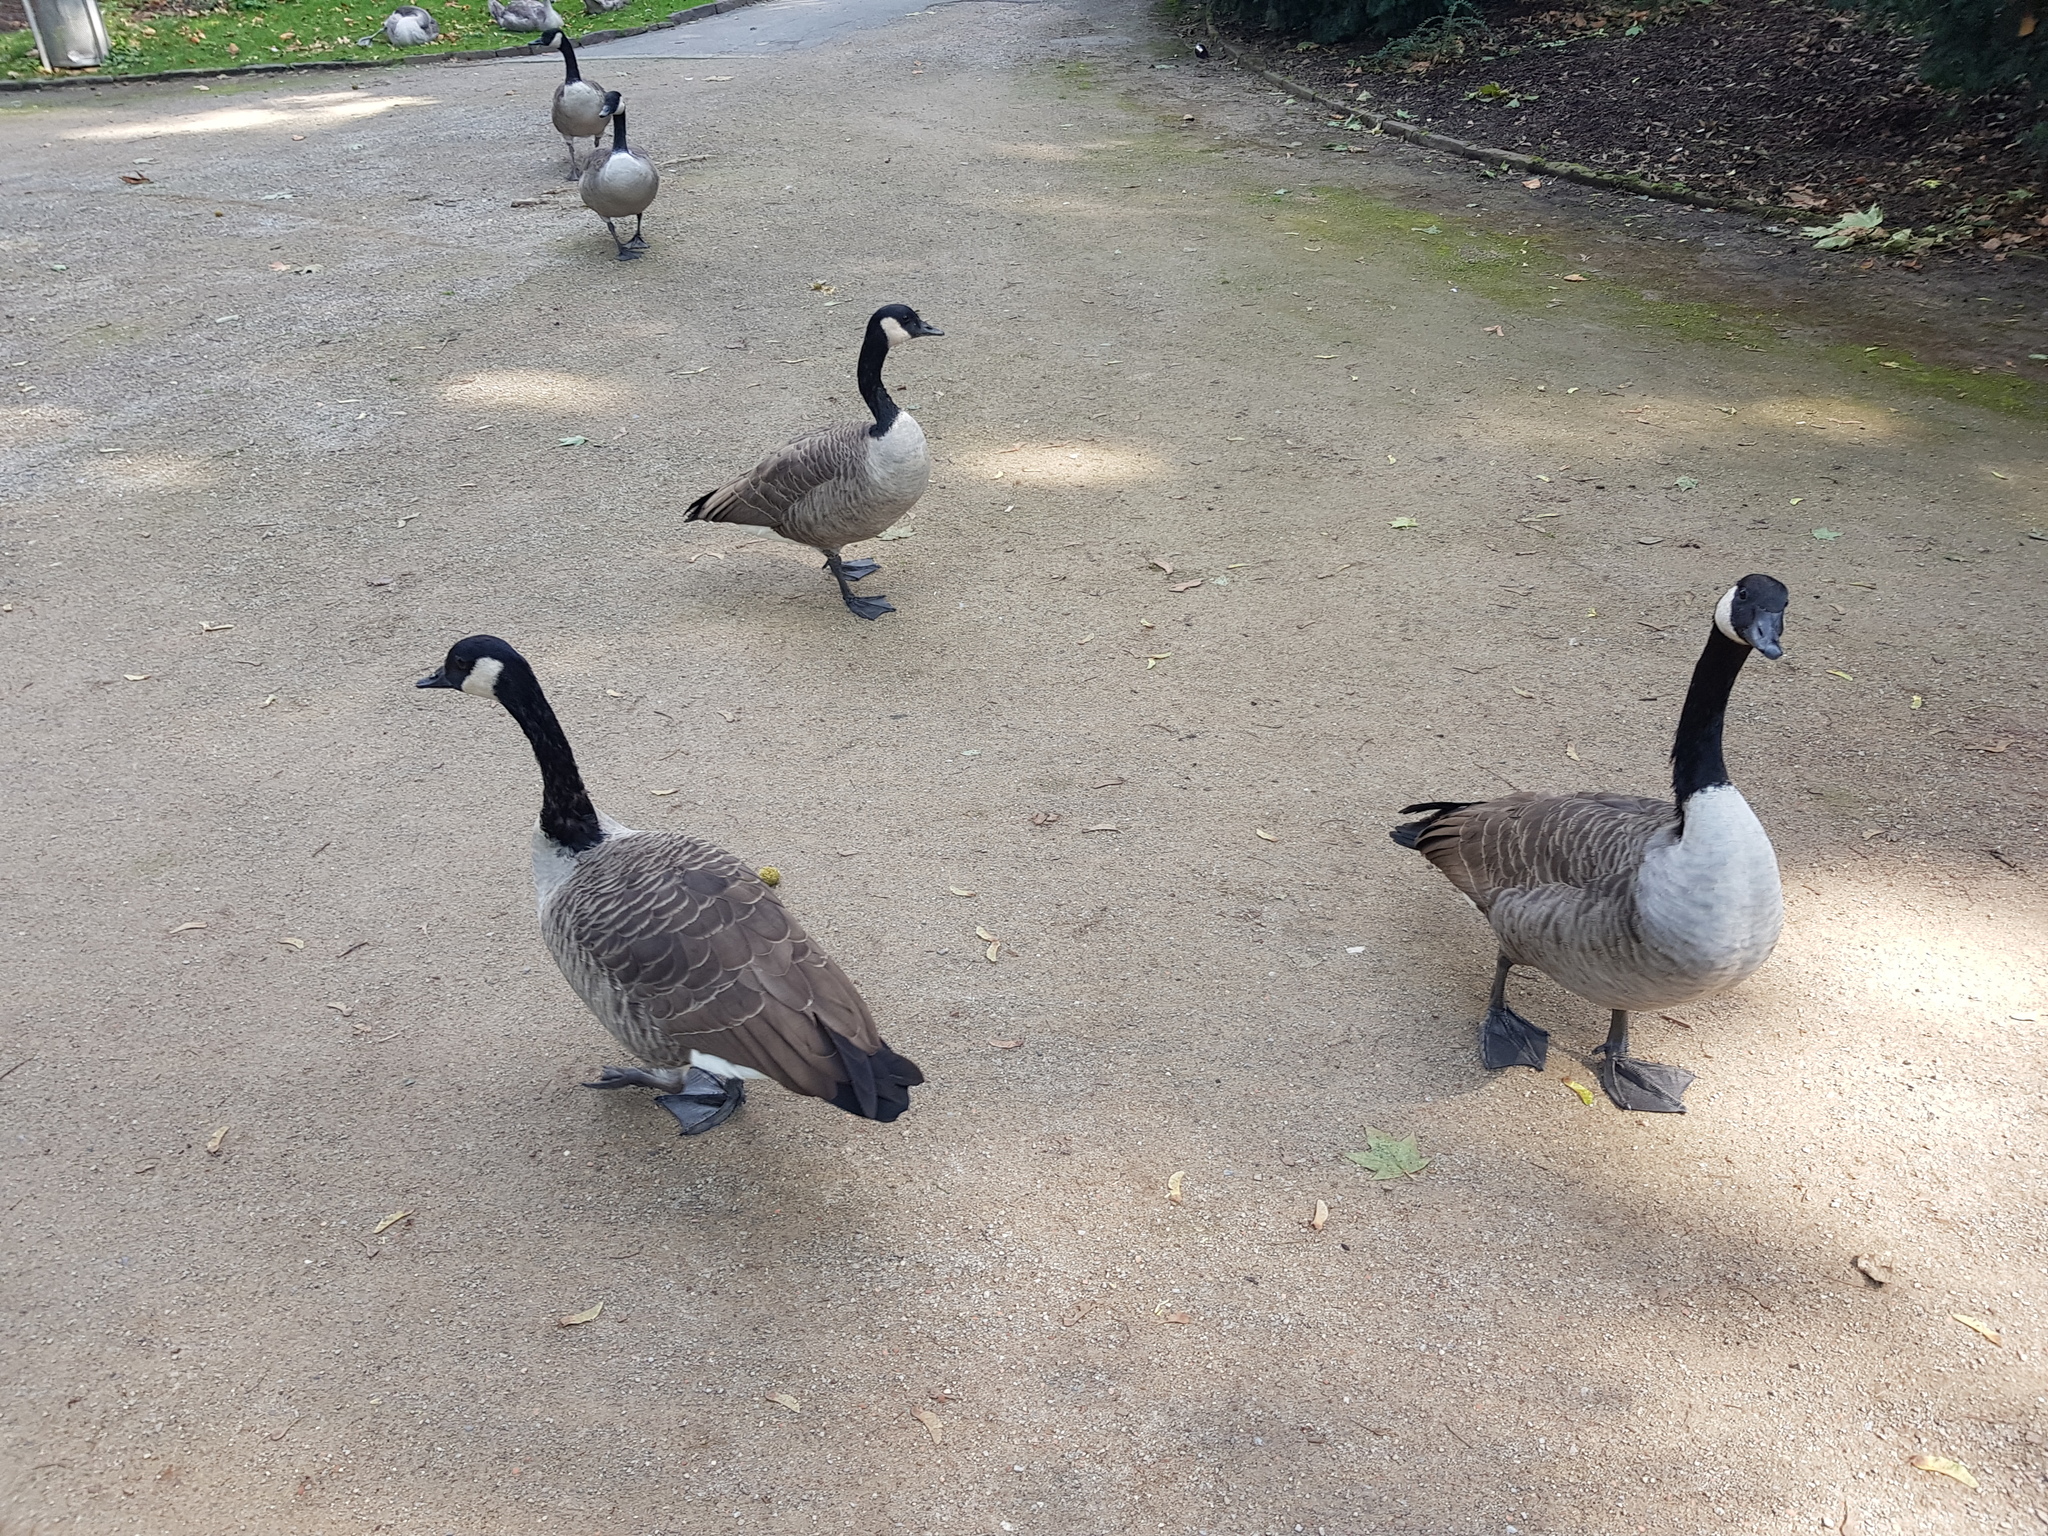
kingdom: Animalia
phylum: Chordata
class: Aves
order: Anseriformes
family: Anatidae
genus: Branta
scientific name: Branta canadensis
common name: Canada goose
